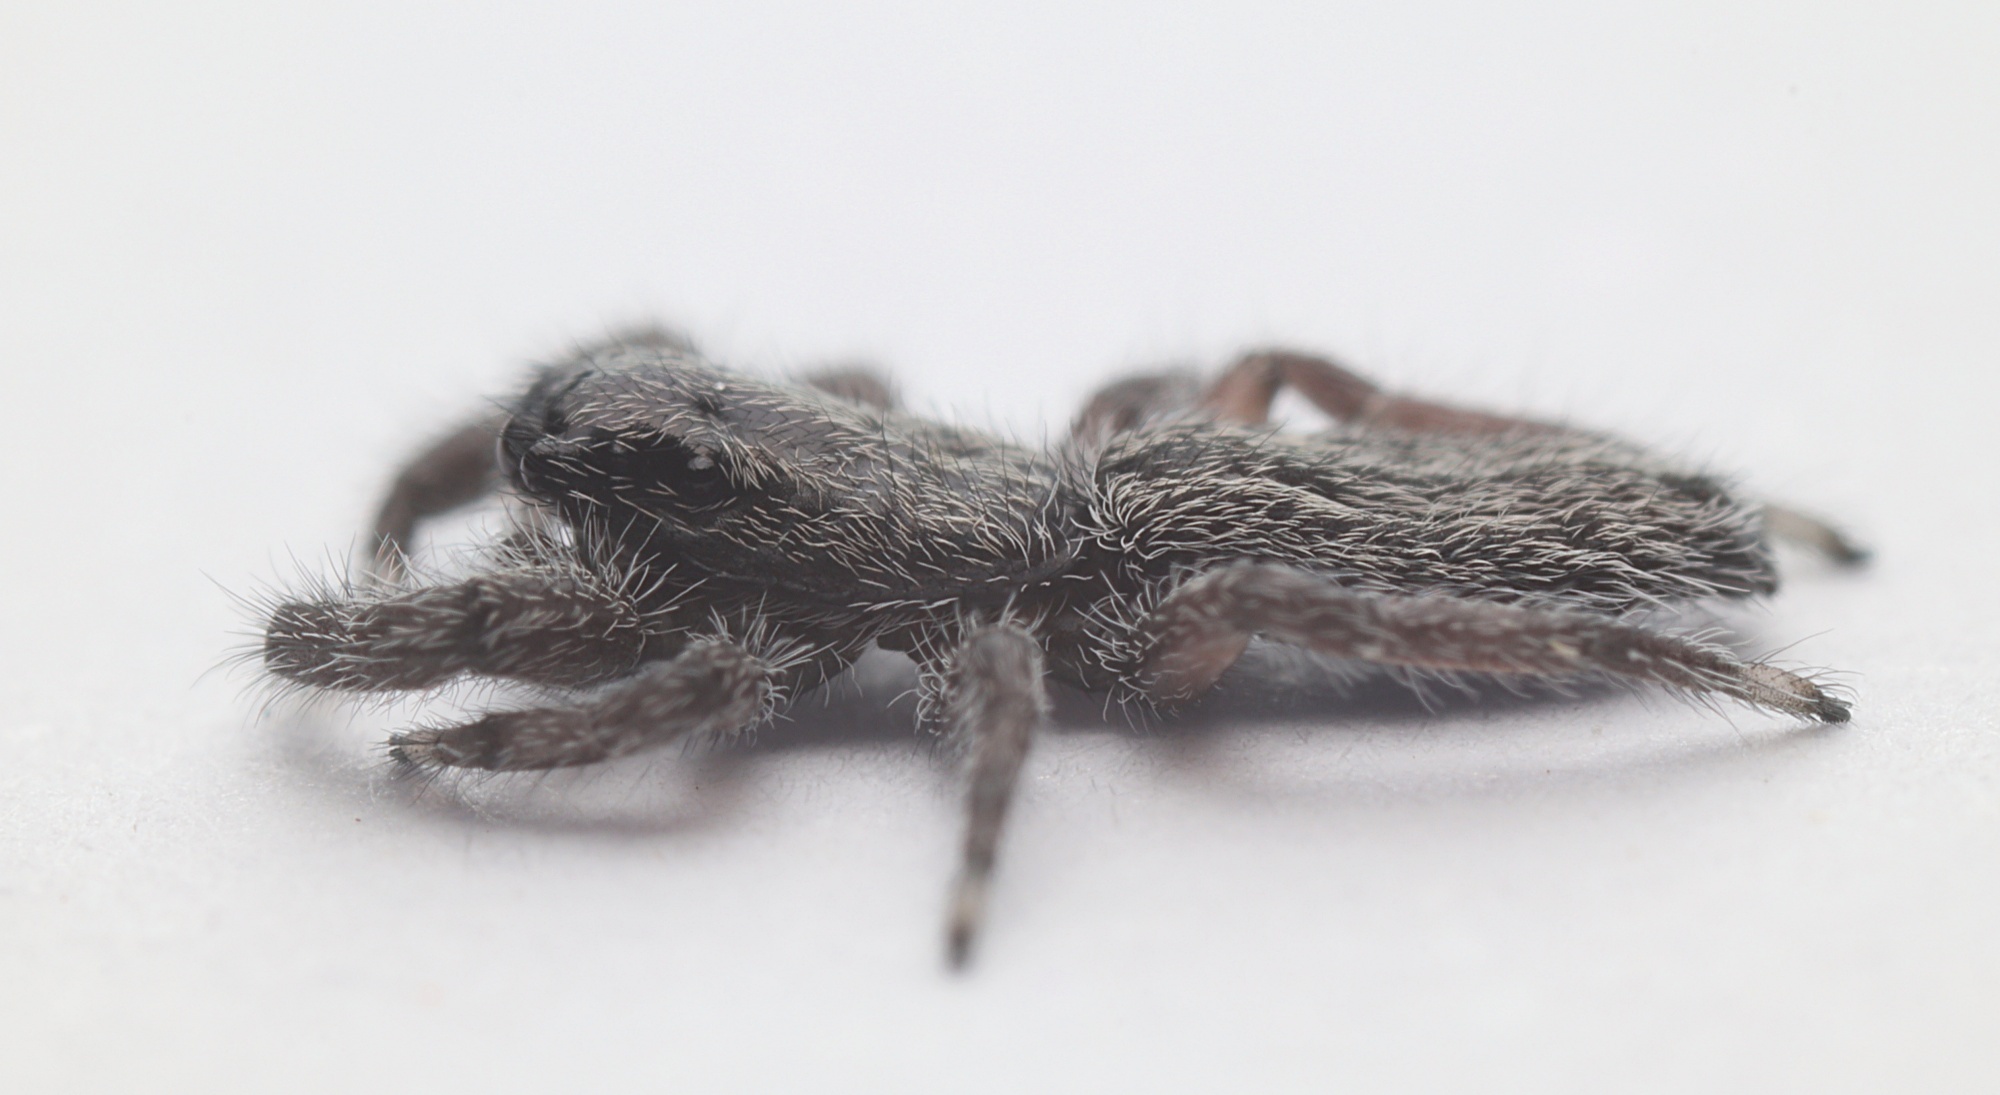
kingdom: Animalia
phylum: Arthropoda
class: Arachnida
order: Araneae
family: Salticidae
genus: Holoplatys
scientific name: Holoplatys apressus
